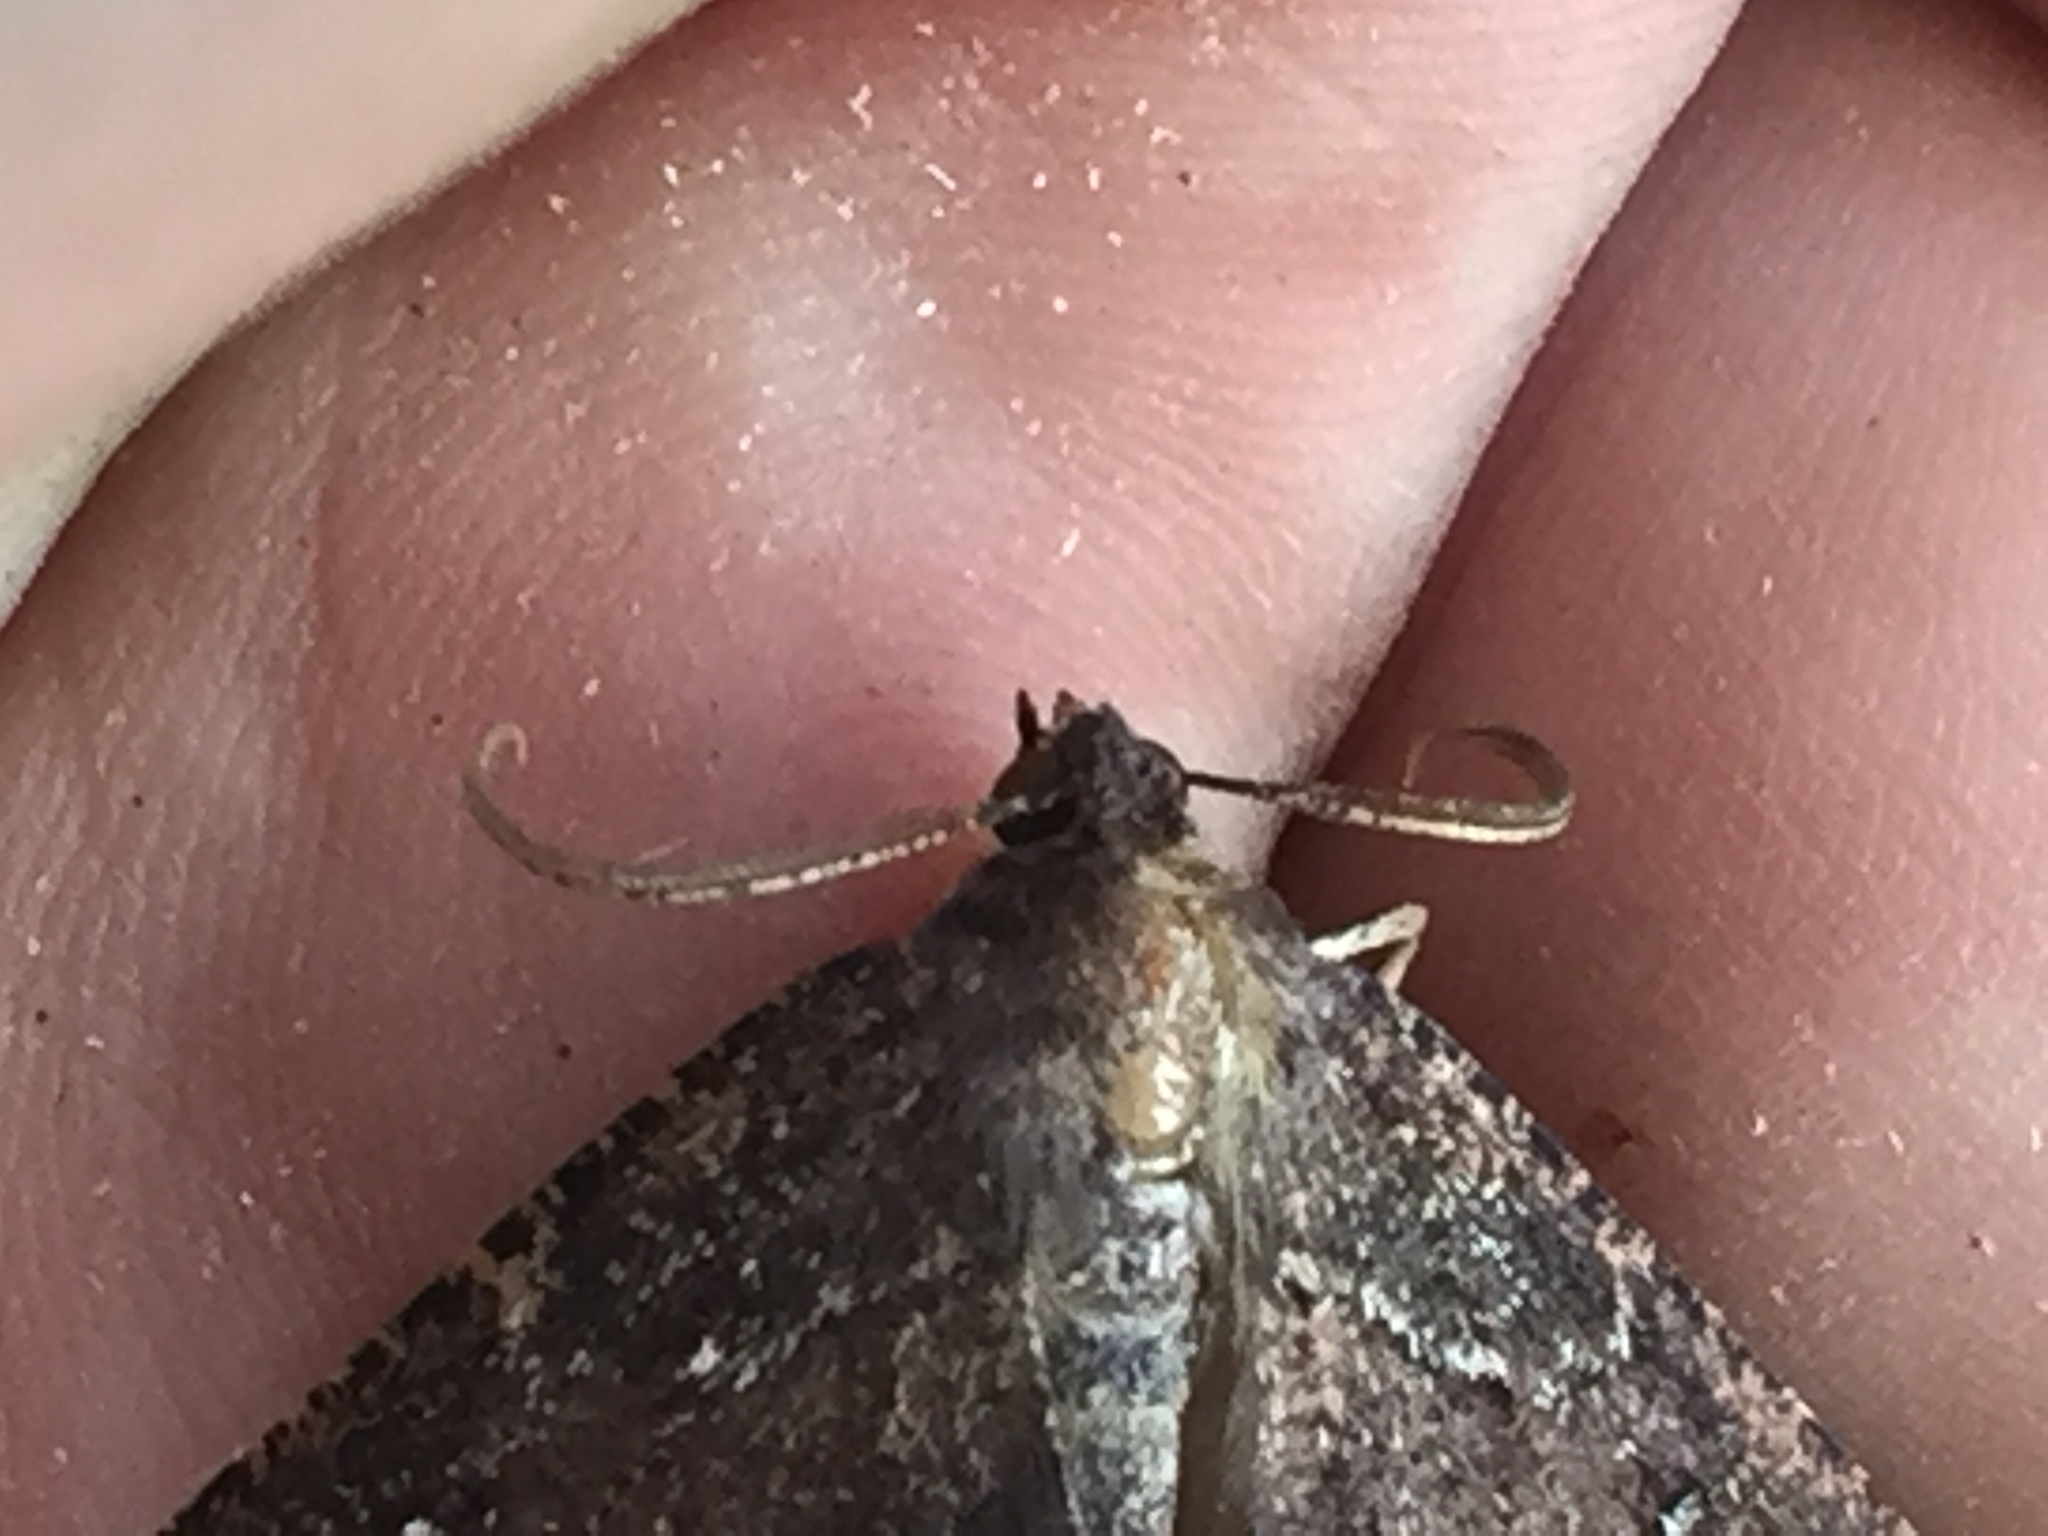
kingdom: Animalia
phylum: Arthropoda
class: Insecta
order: Lepidoptera
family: Geometridae
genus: Gellonia
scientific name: Gellonia dejectaria
